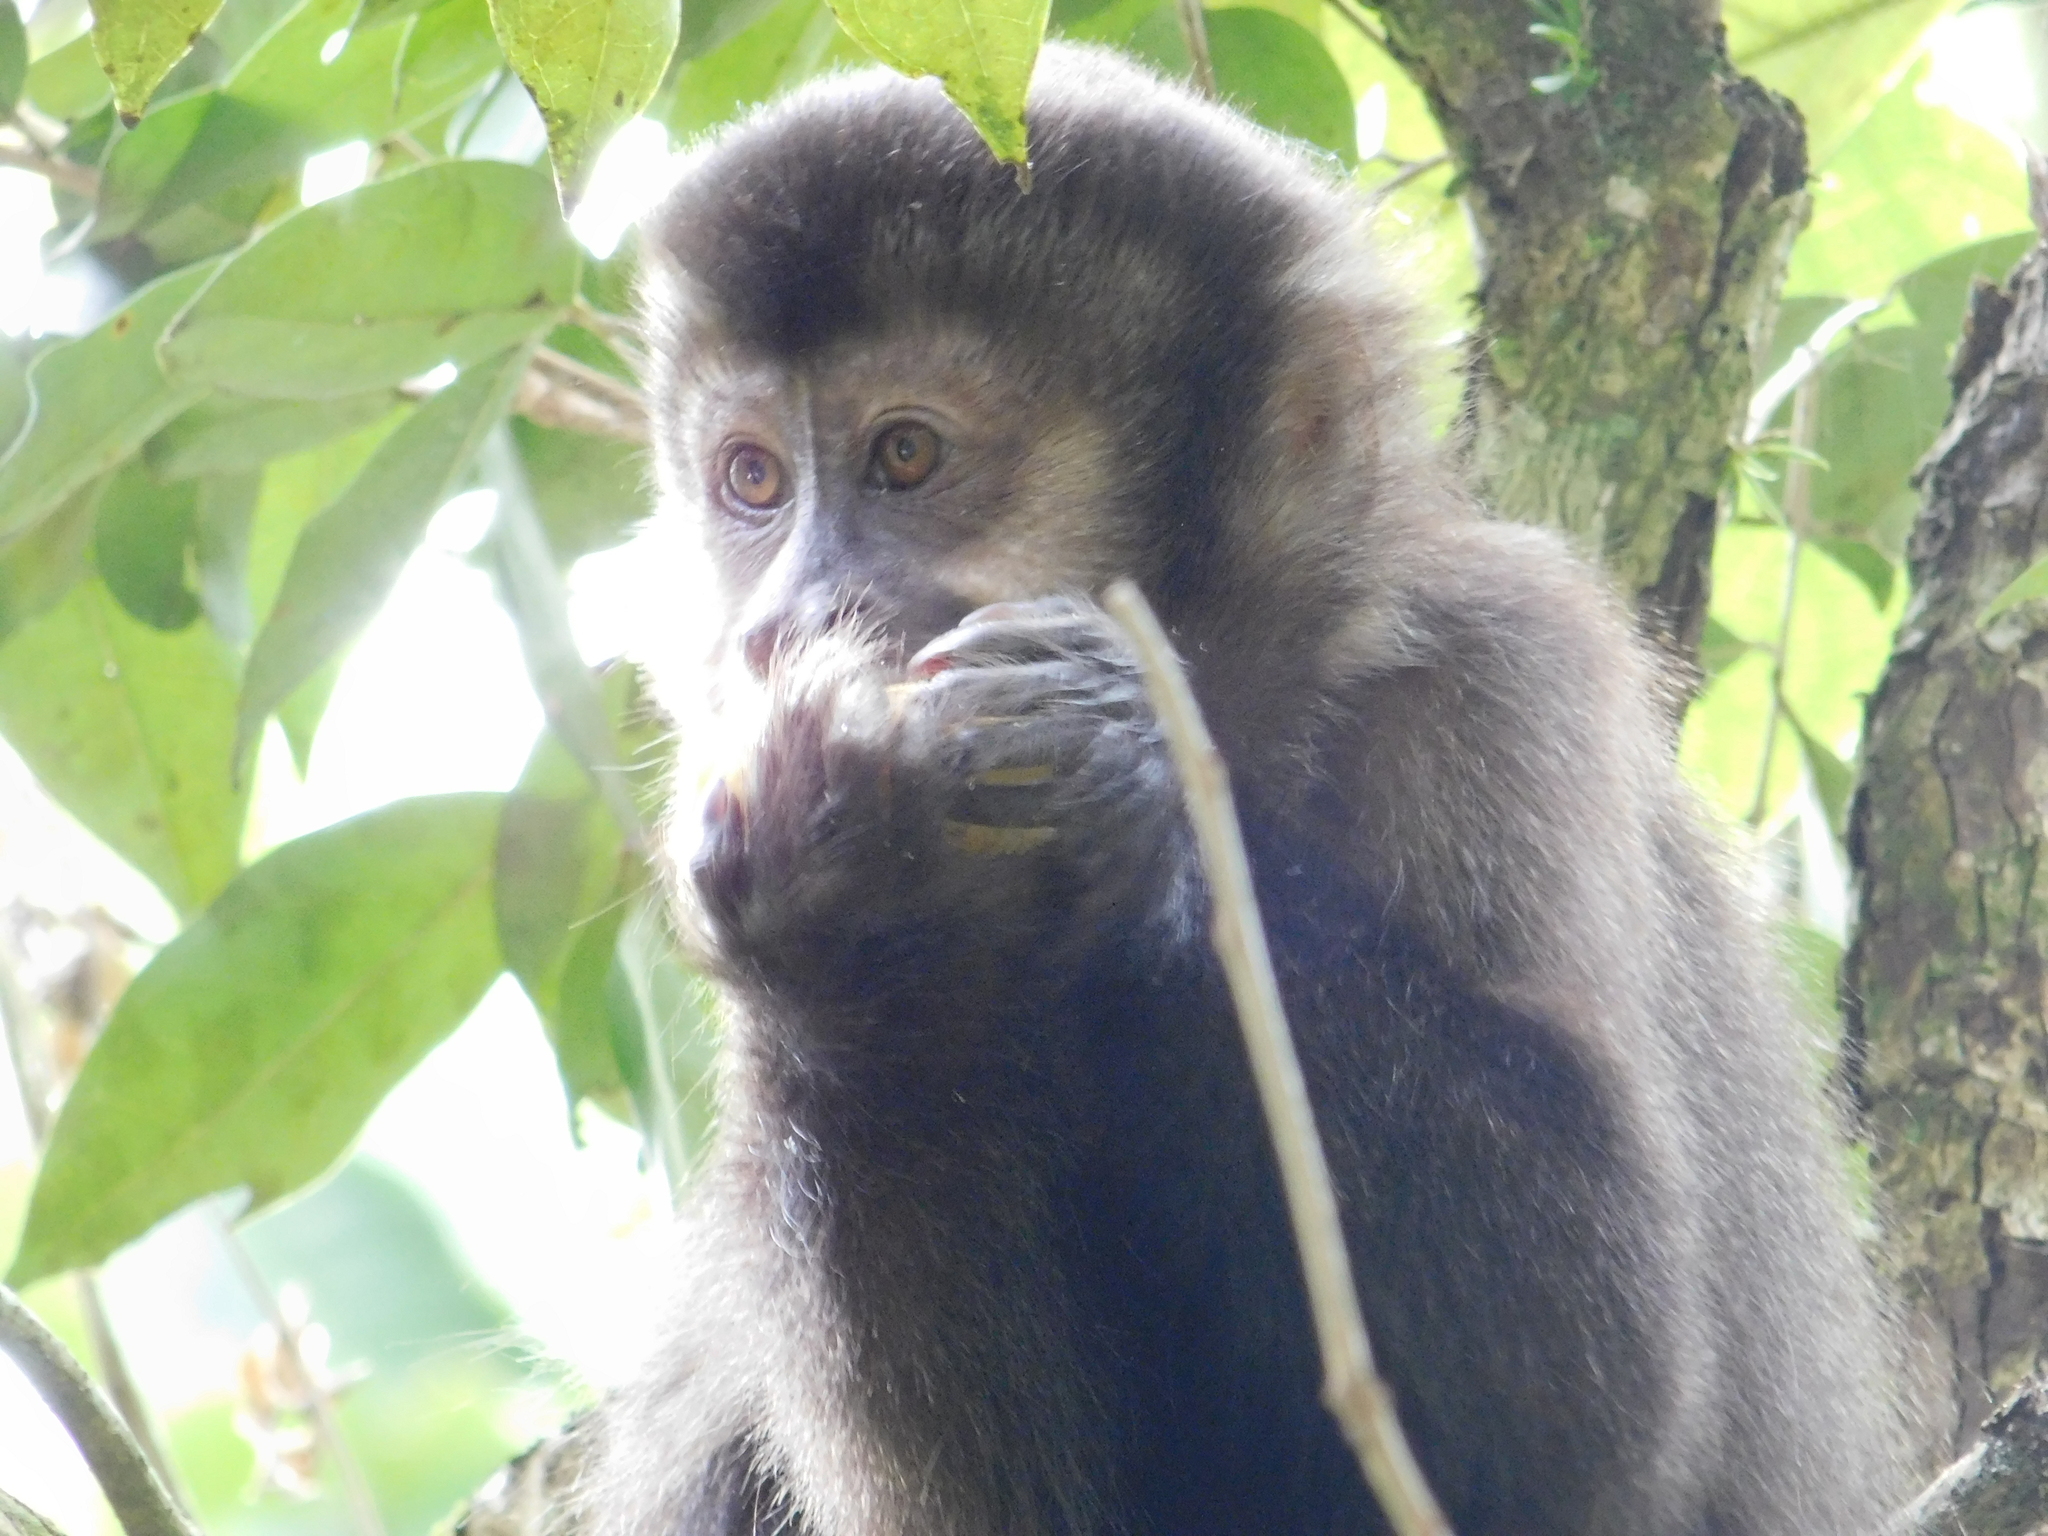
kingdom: Animalia
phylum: Chordata
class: Mammalia
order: Primates
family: Cebidae
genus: Sapajus
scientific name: Sapajus nigritus
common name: Black capuchin
